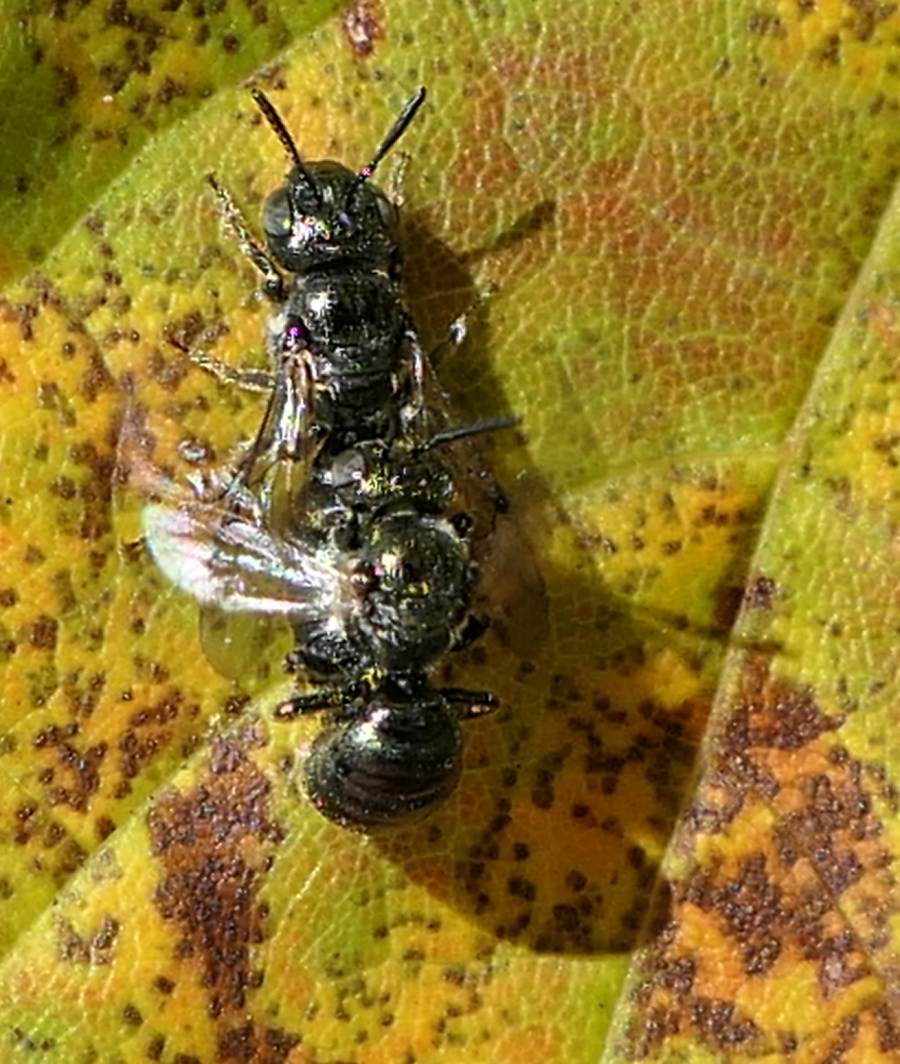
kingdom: Animalia
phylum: Arthropoda
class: Insecta
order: Hymenoptera
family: Apidae
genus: Zadontomerus
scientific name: Zadontomerus
